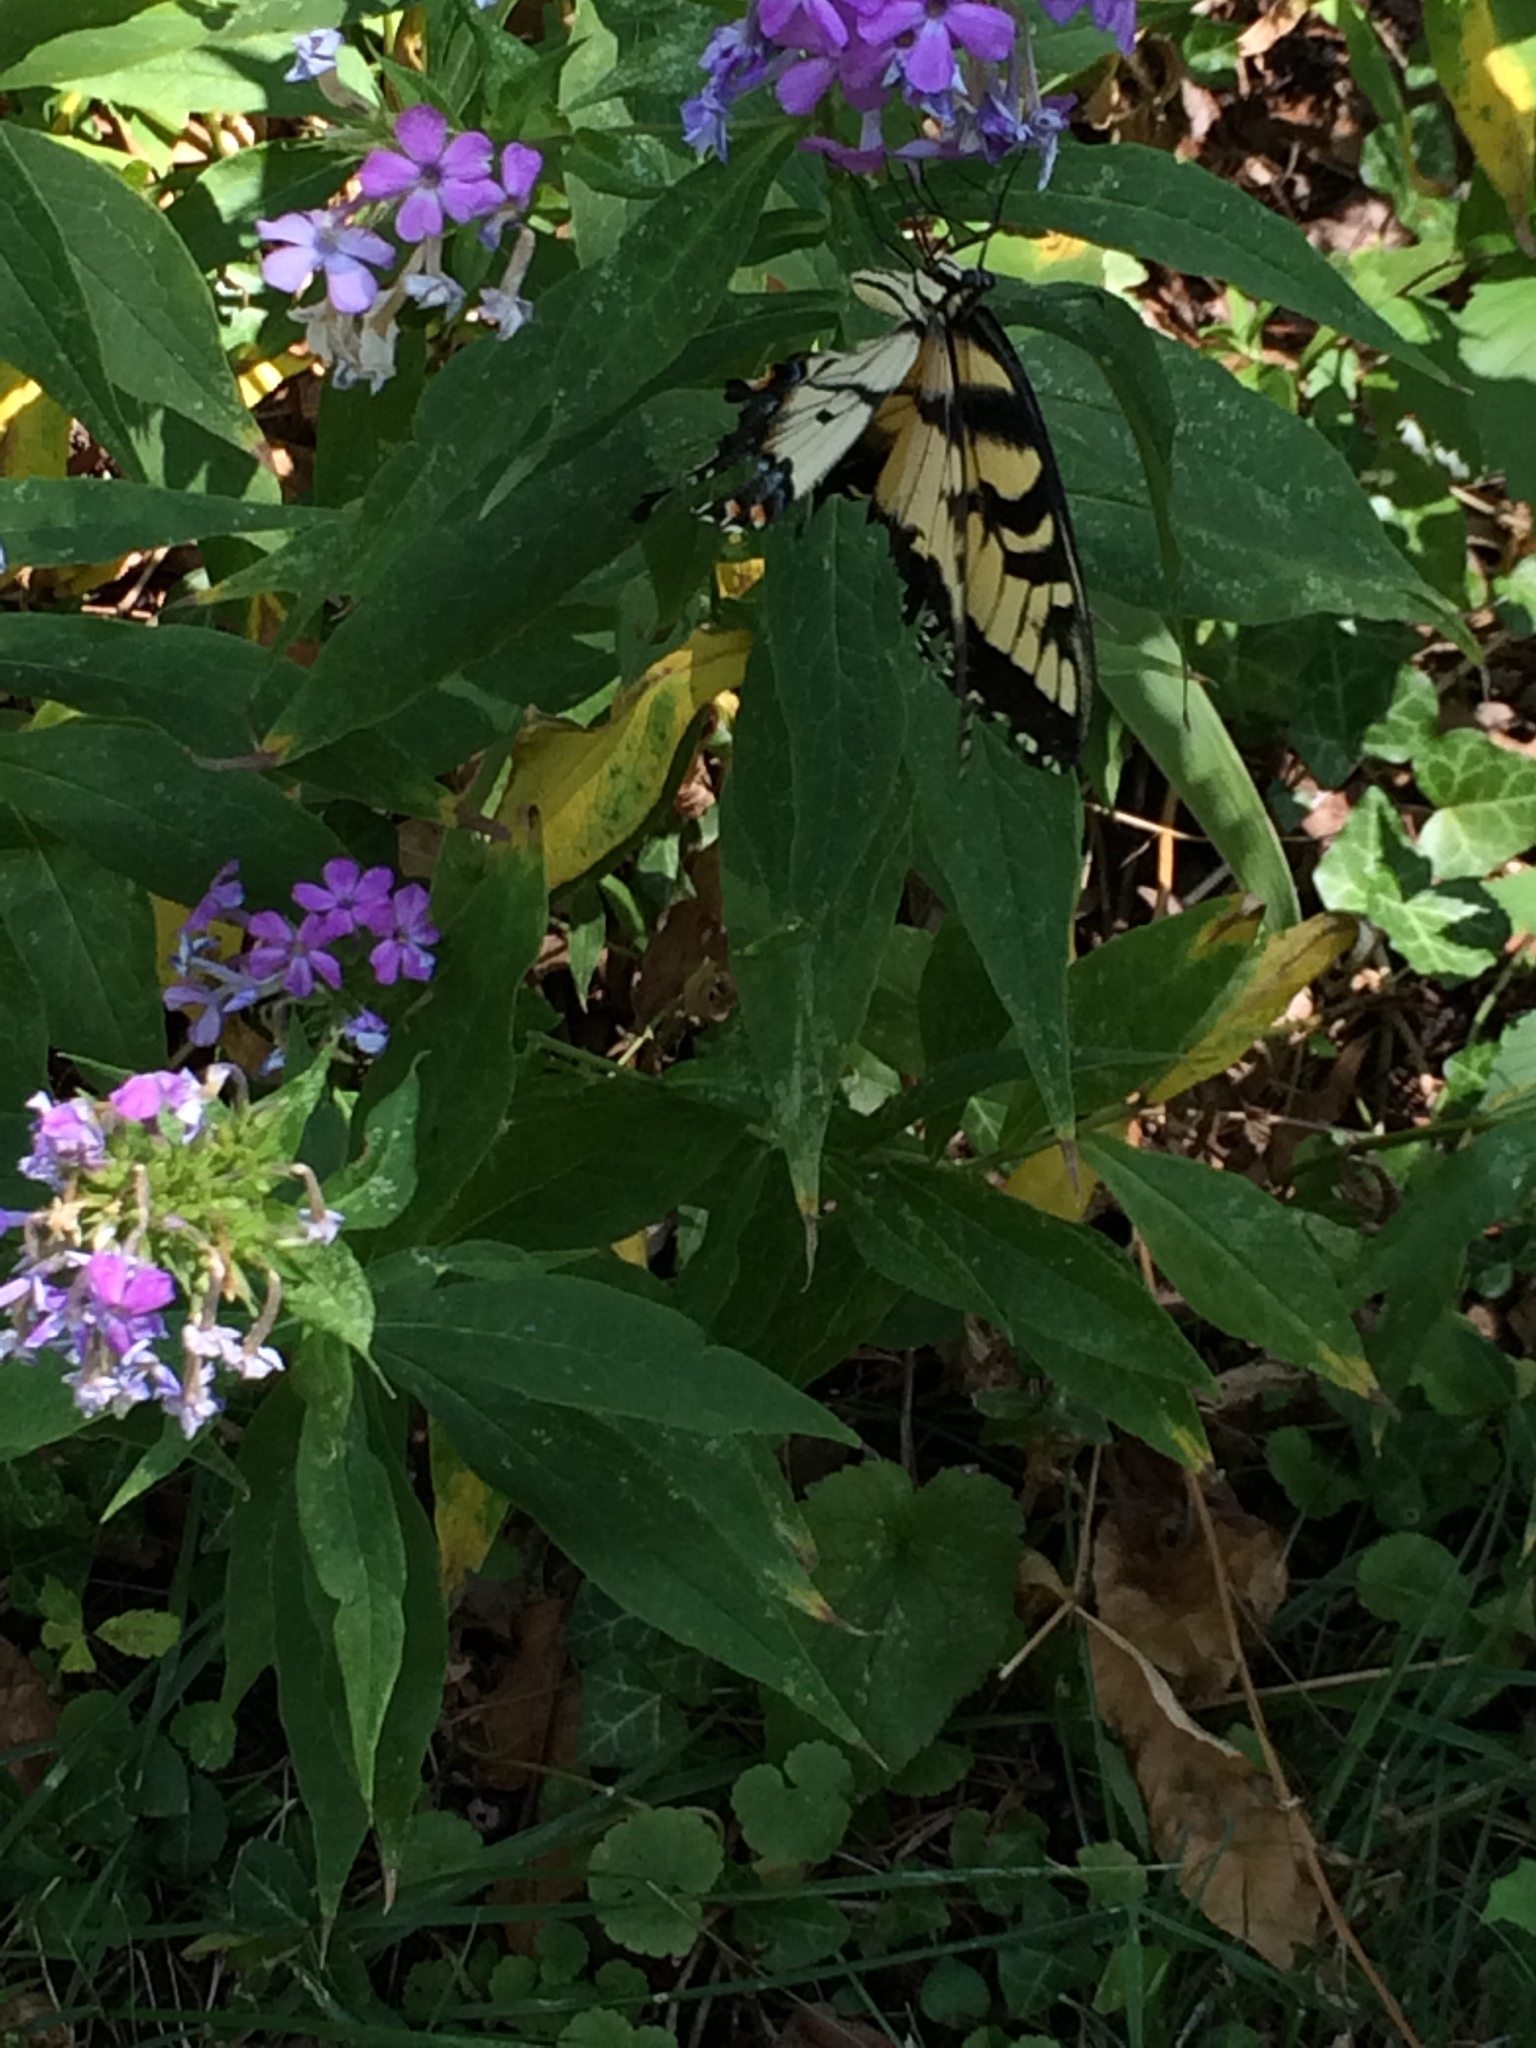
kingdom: Animalia
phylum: Arthropoda
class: Insecta
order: Lepidoptera
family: Papilionidae
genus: Papilio
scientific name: Papilio glaucus
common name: Tiger swallowtail
